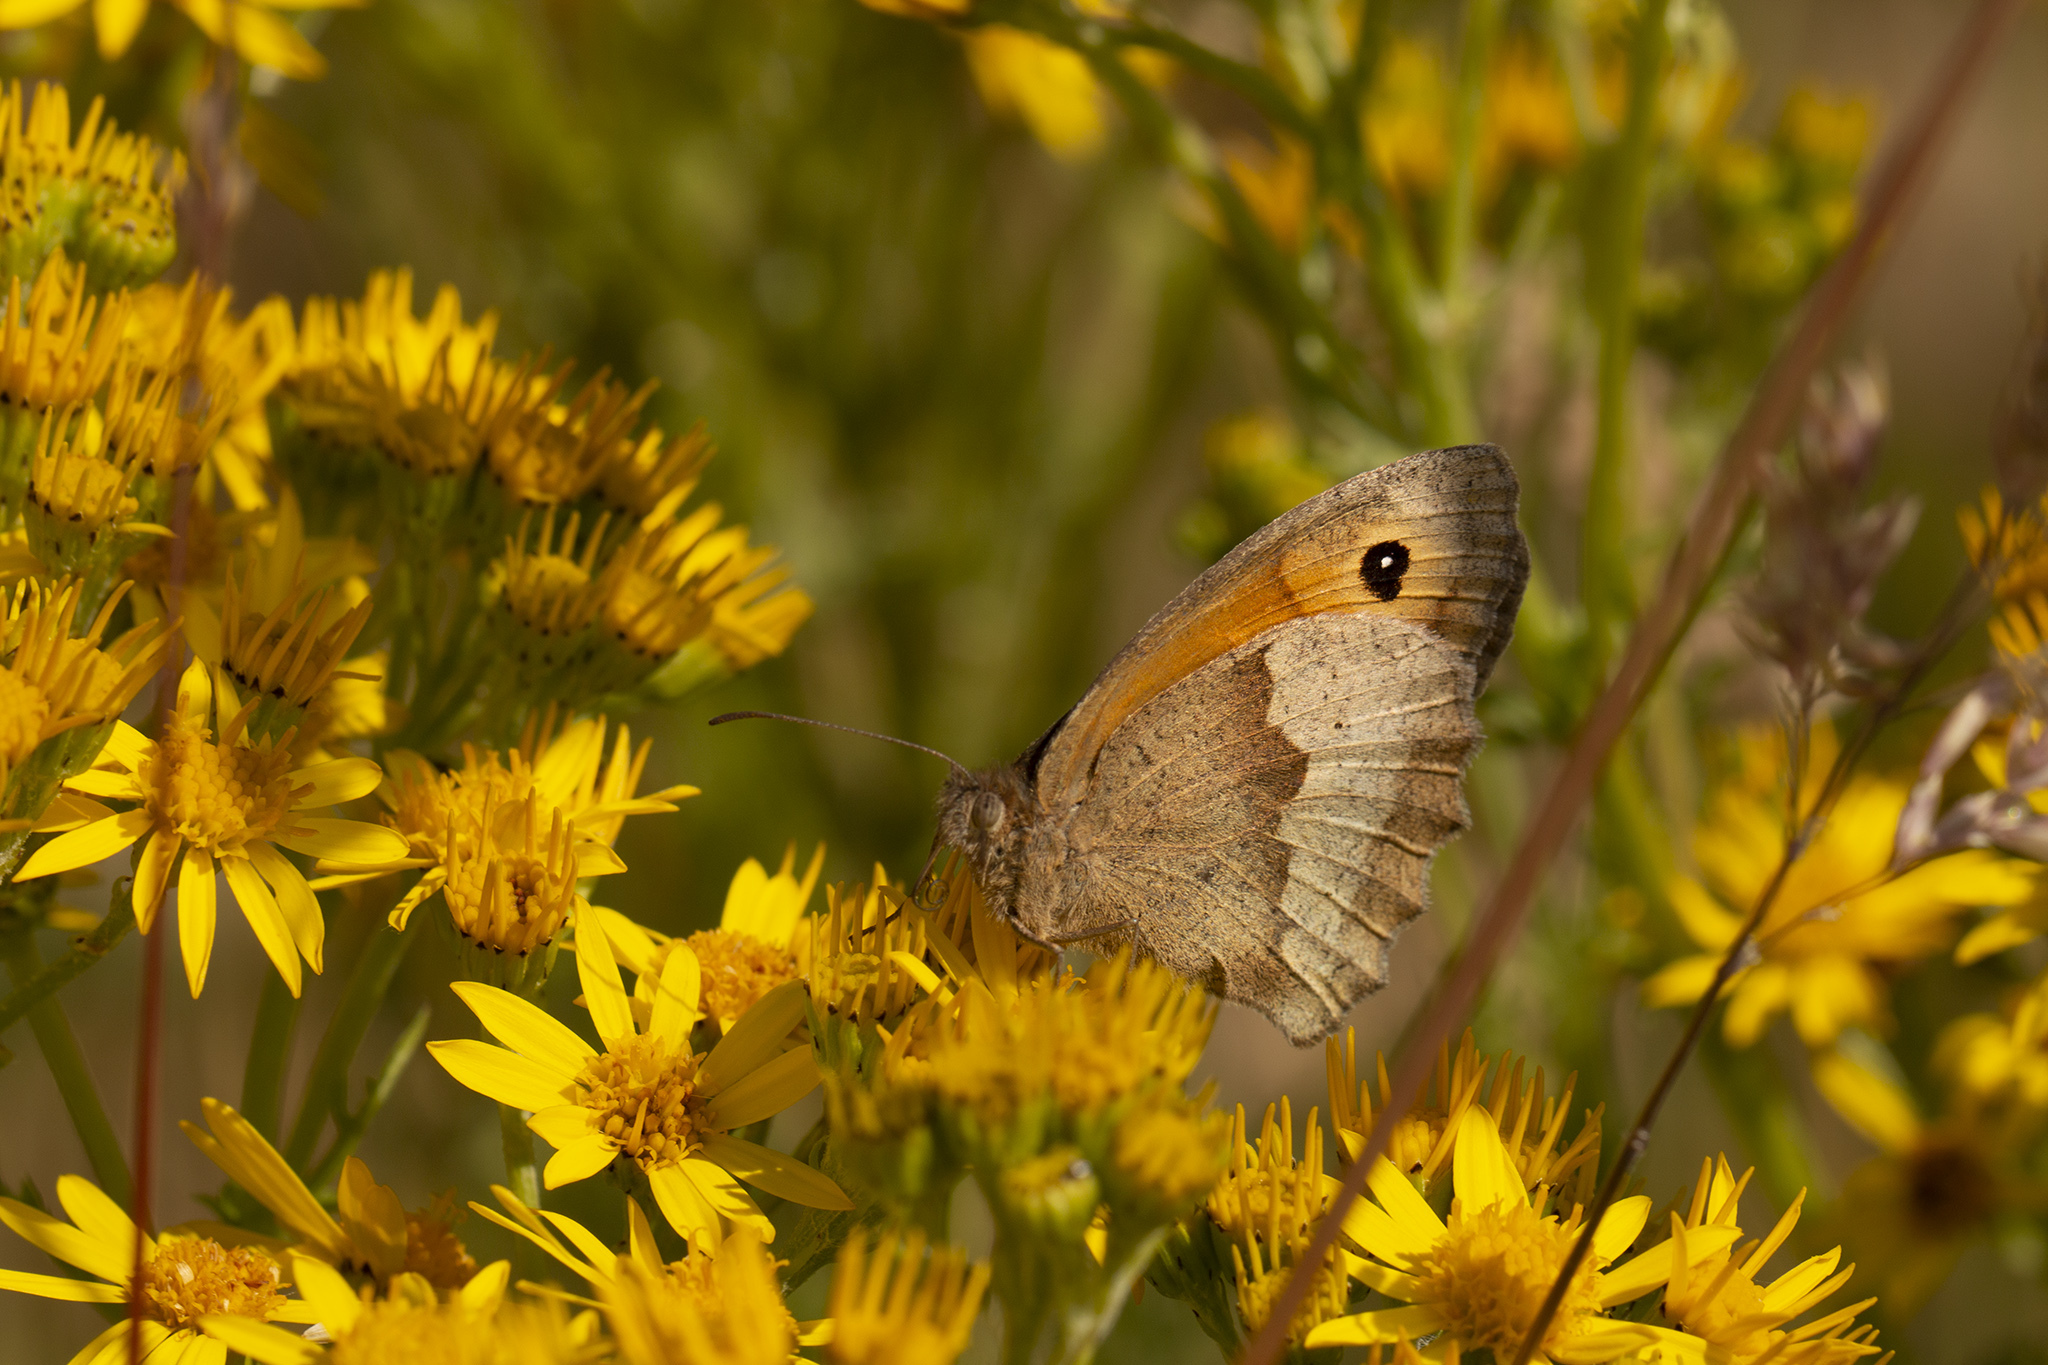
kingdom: Animalia
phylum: Arthropoda
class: Insecta
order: Lepidoptera
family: Nymphalidae
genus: Maniola
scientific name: Maniola jurtina
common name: Meadow brown
